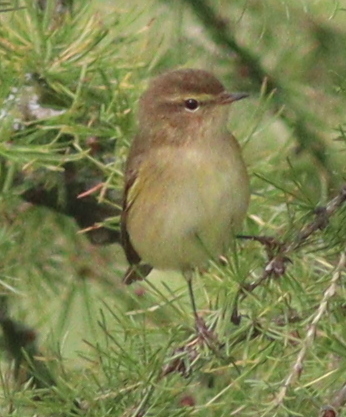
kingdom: Animalia
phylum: Chordata
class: Aves
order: Passeriformes
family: Phylloscopidae
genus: Phylloscopus
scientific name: Phylloscopus collybita
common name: Common chiffchaff
